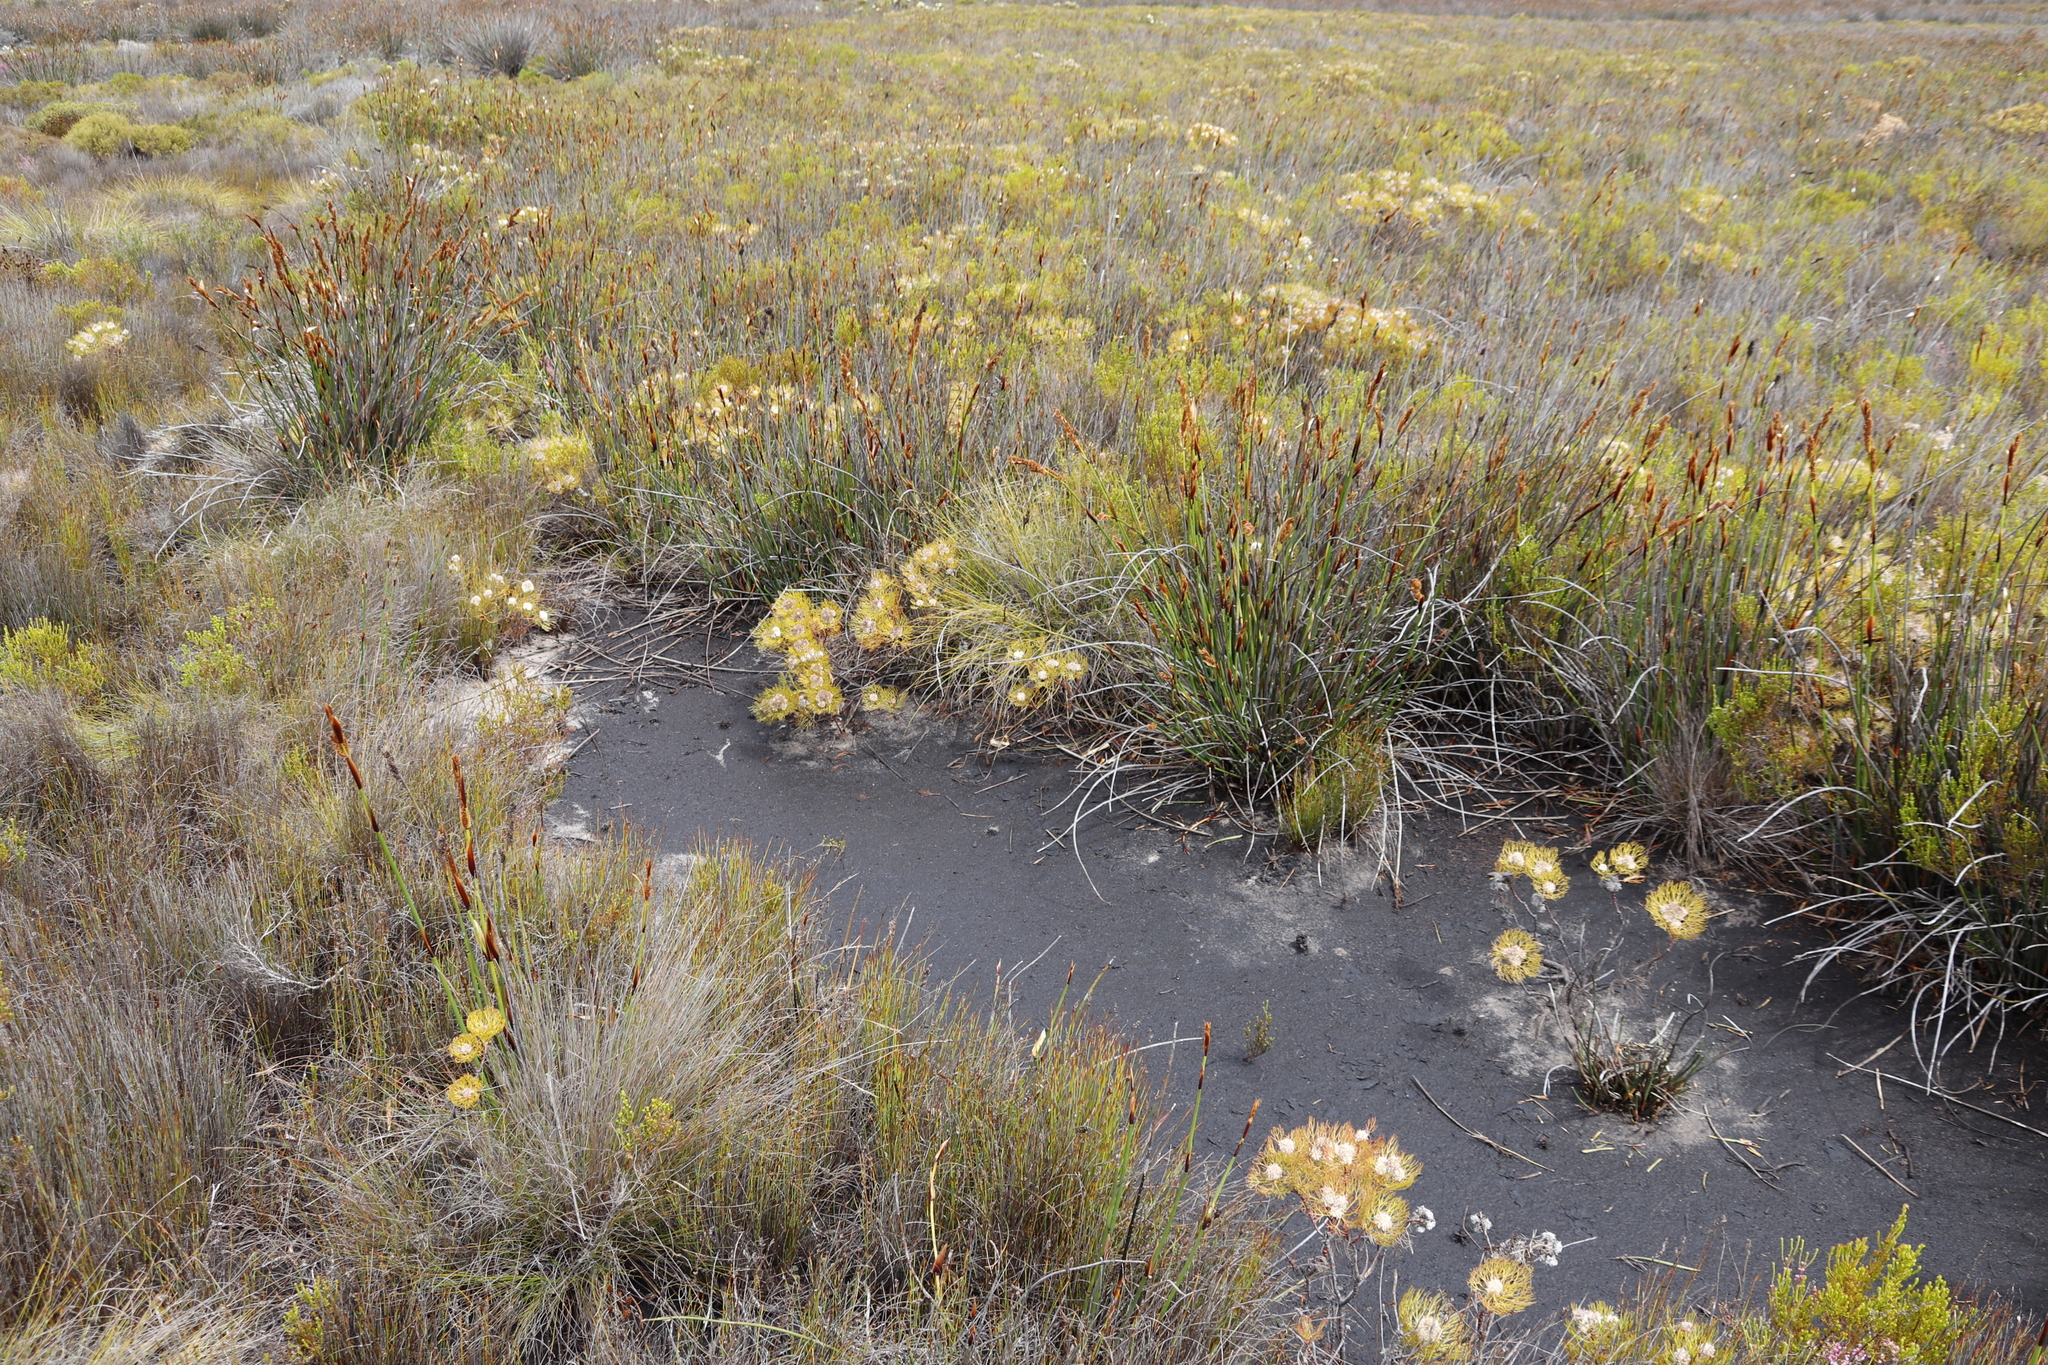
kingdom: Plantae
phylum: Tracheophyta
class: Magnoliopsida
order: Proteales
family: Proteaceae
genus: Serruria
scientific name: Serruria glomerata
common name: Cluster spiderhead
